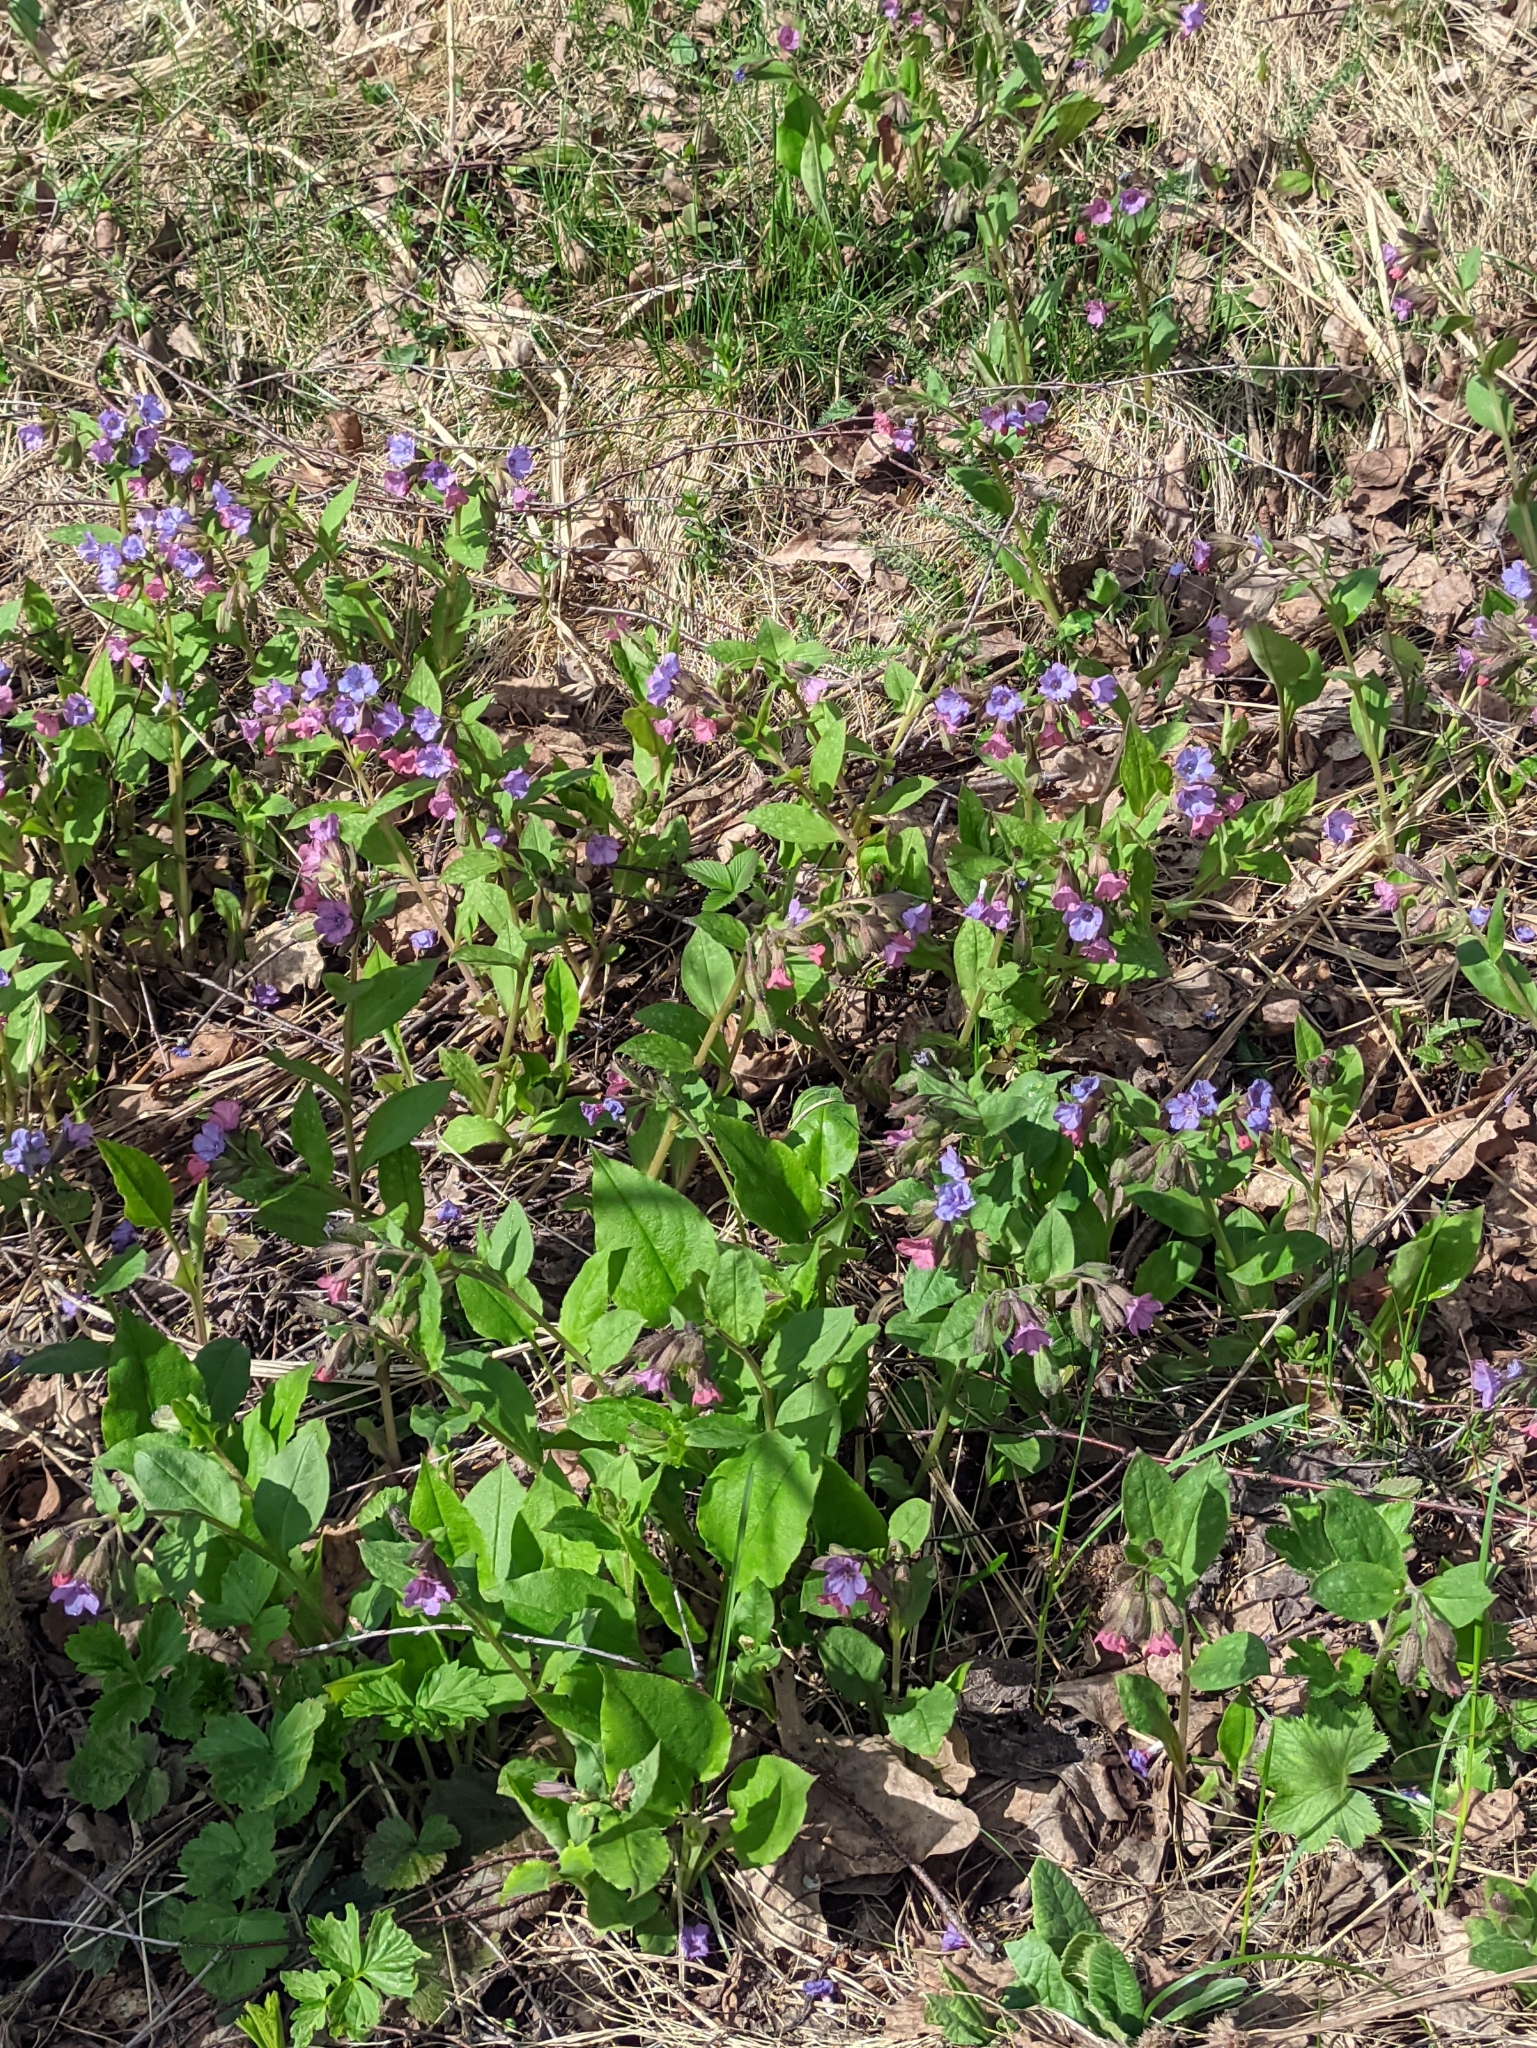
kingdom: Plantae
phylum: Tracheophyta
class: Magnoliopsida
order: Boraginales
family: Boraginaceae
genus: Pulmonaria
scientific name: Pulmonaria obscura
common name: Suffolk lungwort
